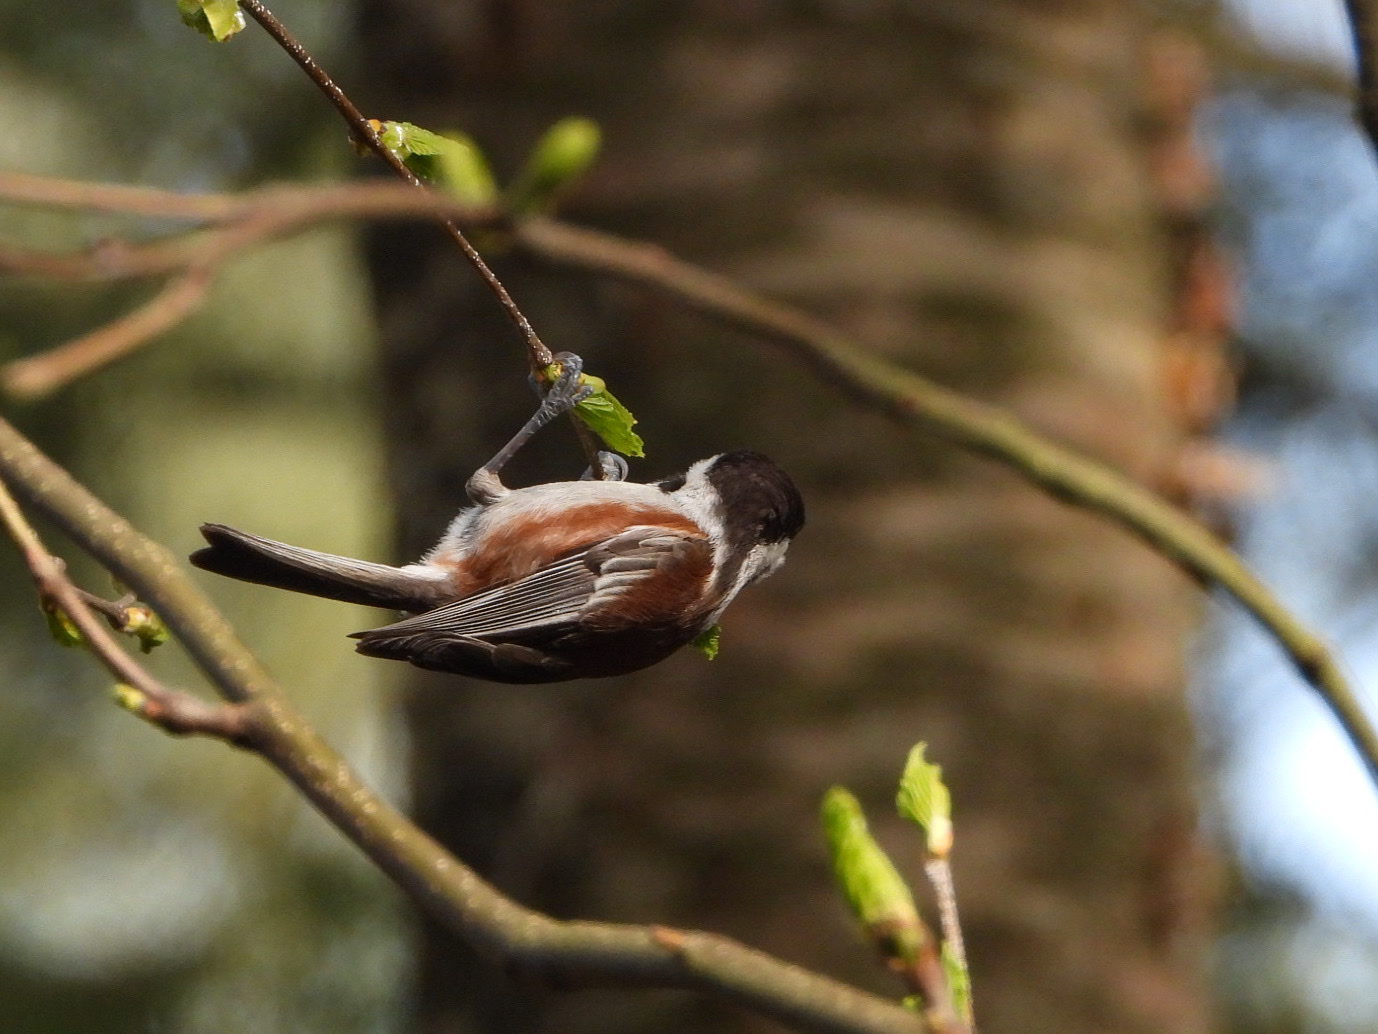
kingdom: Animalia
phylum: Chordata
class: Aves
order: Passeriformes
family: Paridae
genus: Poecile
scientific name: Poecile rufescens
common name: Chestnut-backed chickadee
